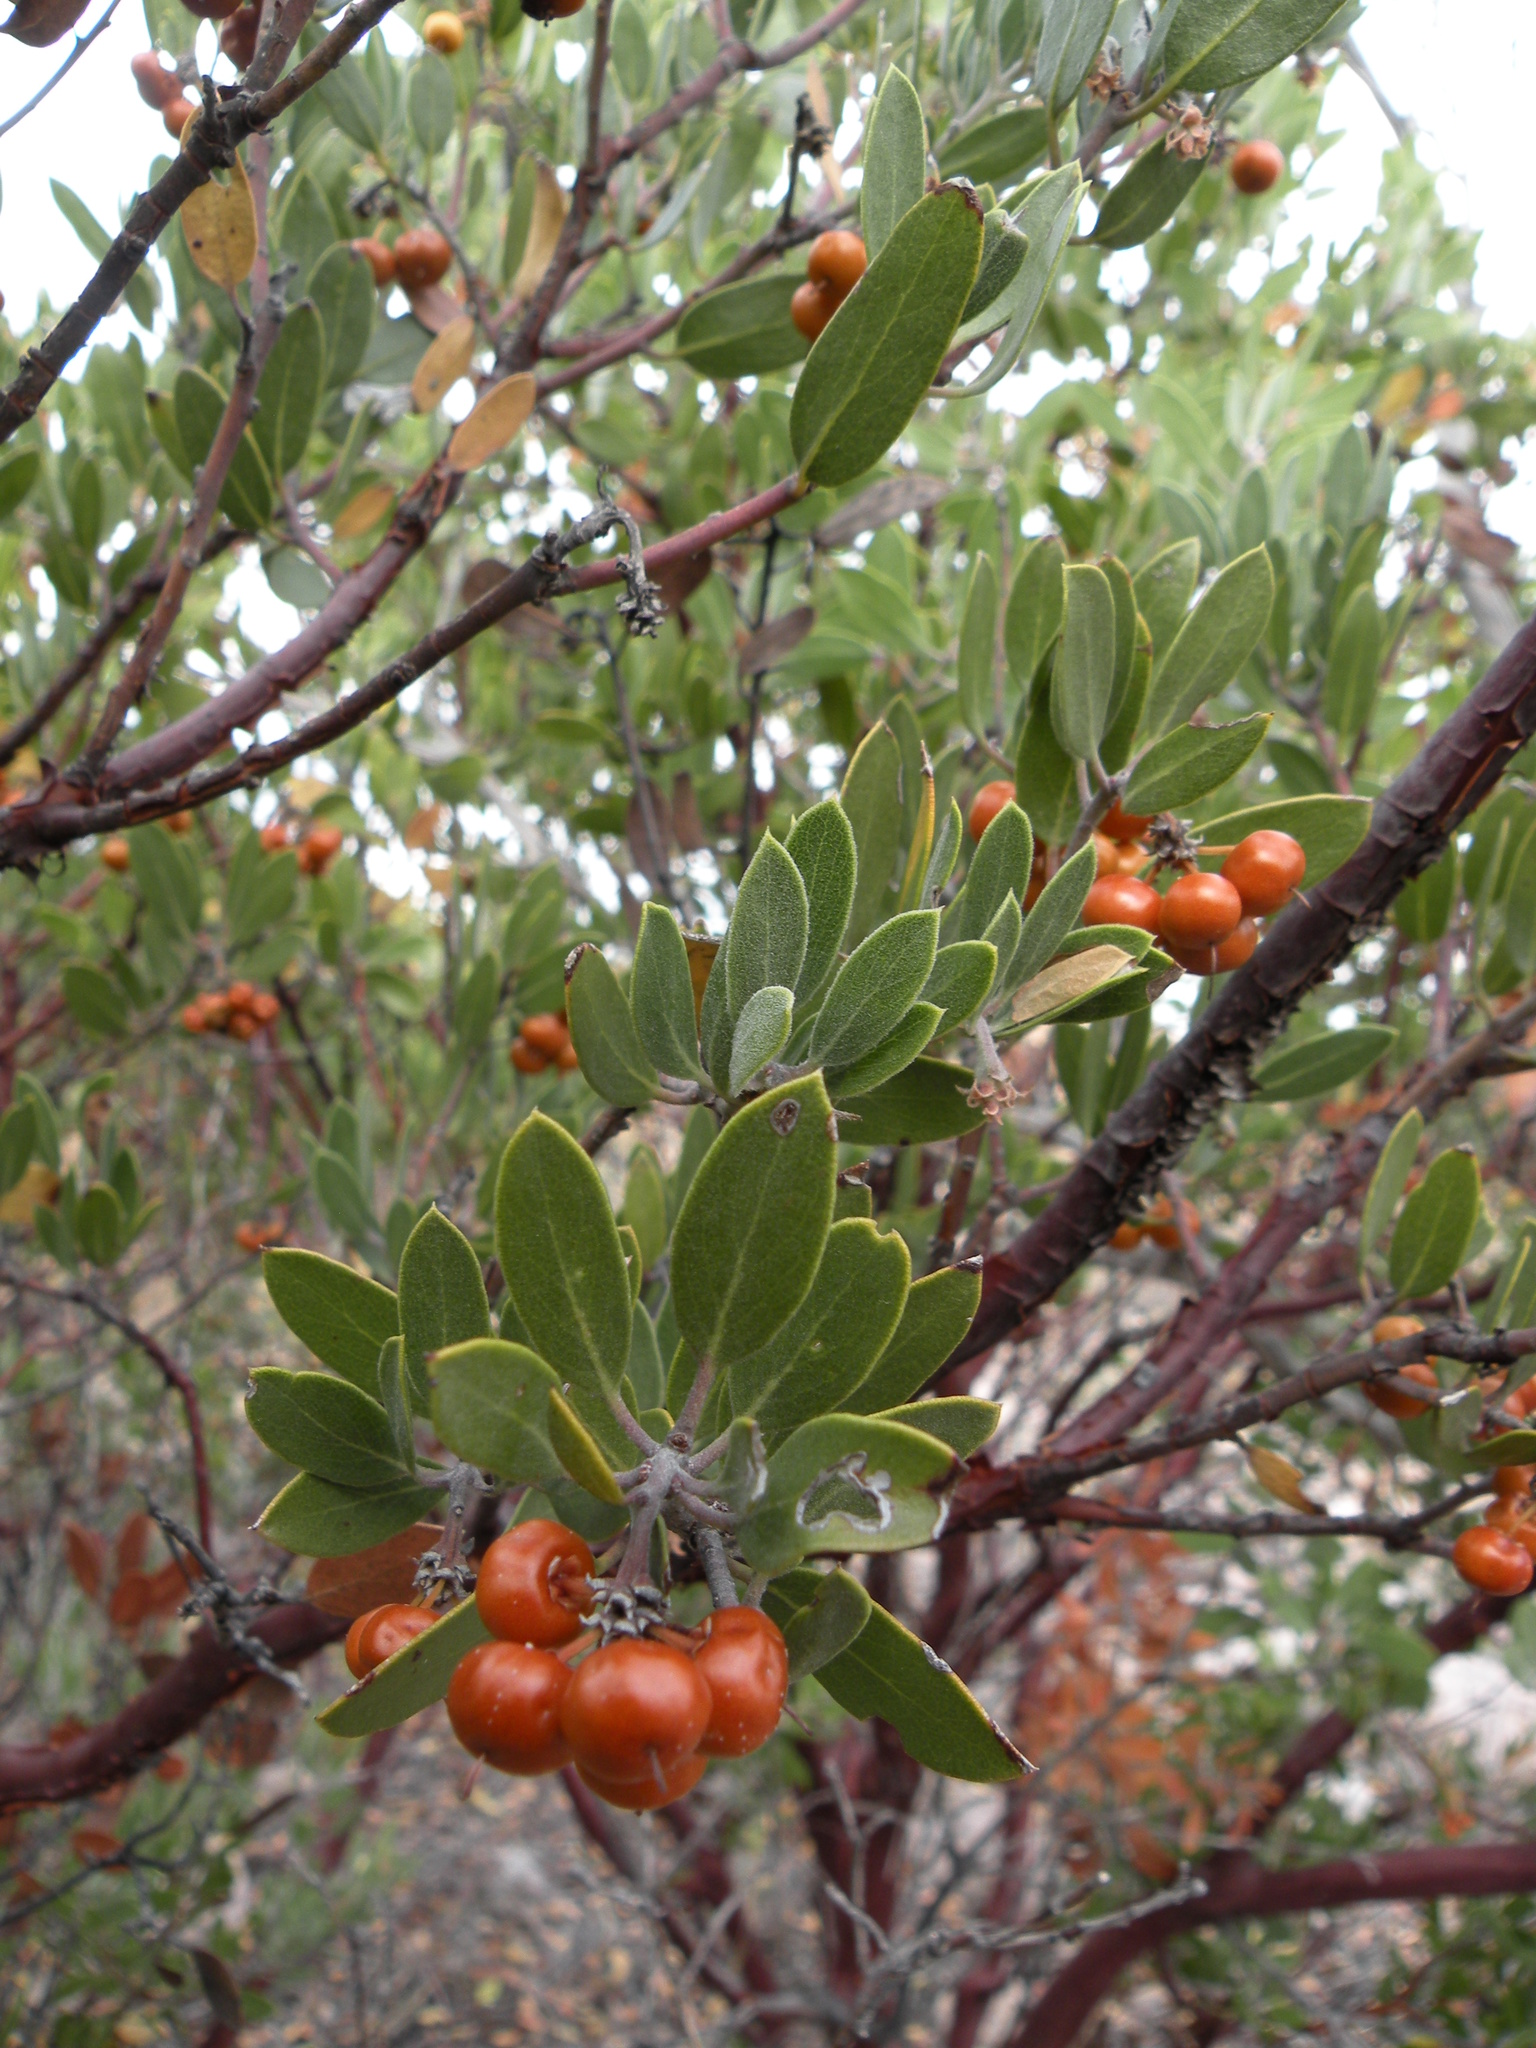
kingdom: Plantae
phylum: Tracheophyta
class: Magnoliopsida
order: Ericales
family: Ericaceae
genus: Arctostaphylos
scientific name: Arctostaphylos pungens
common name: Mexican manzanita
